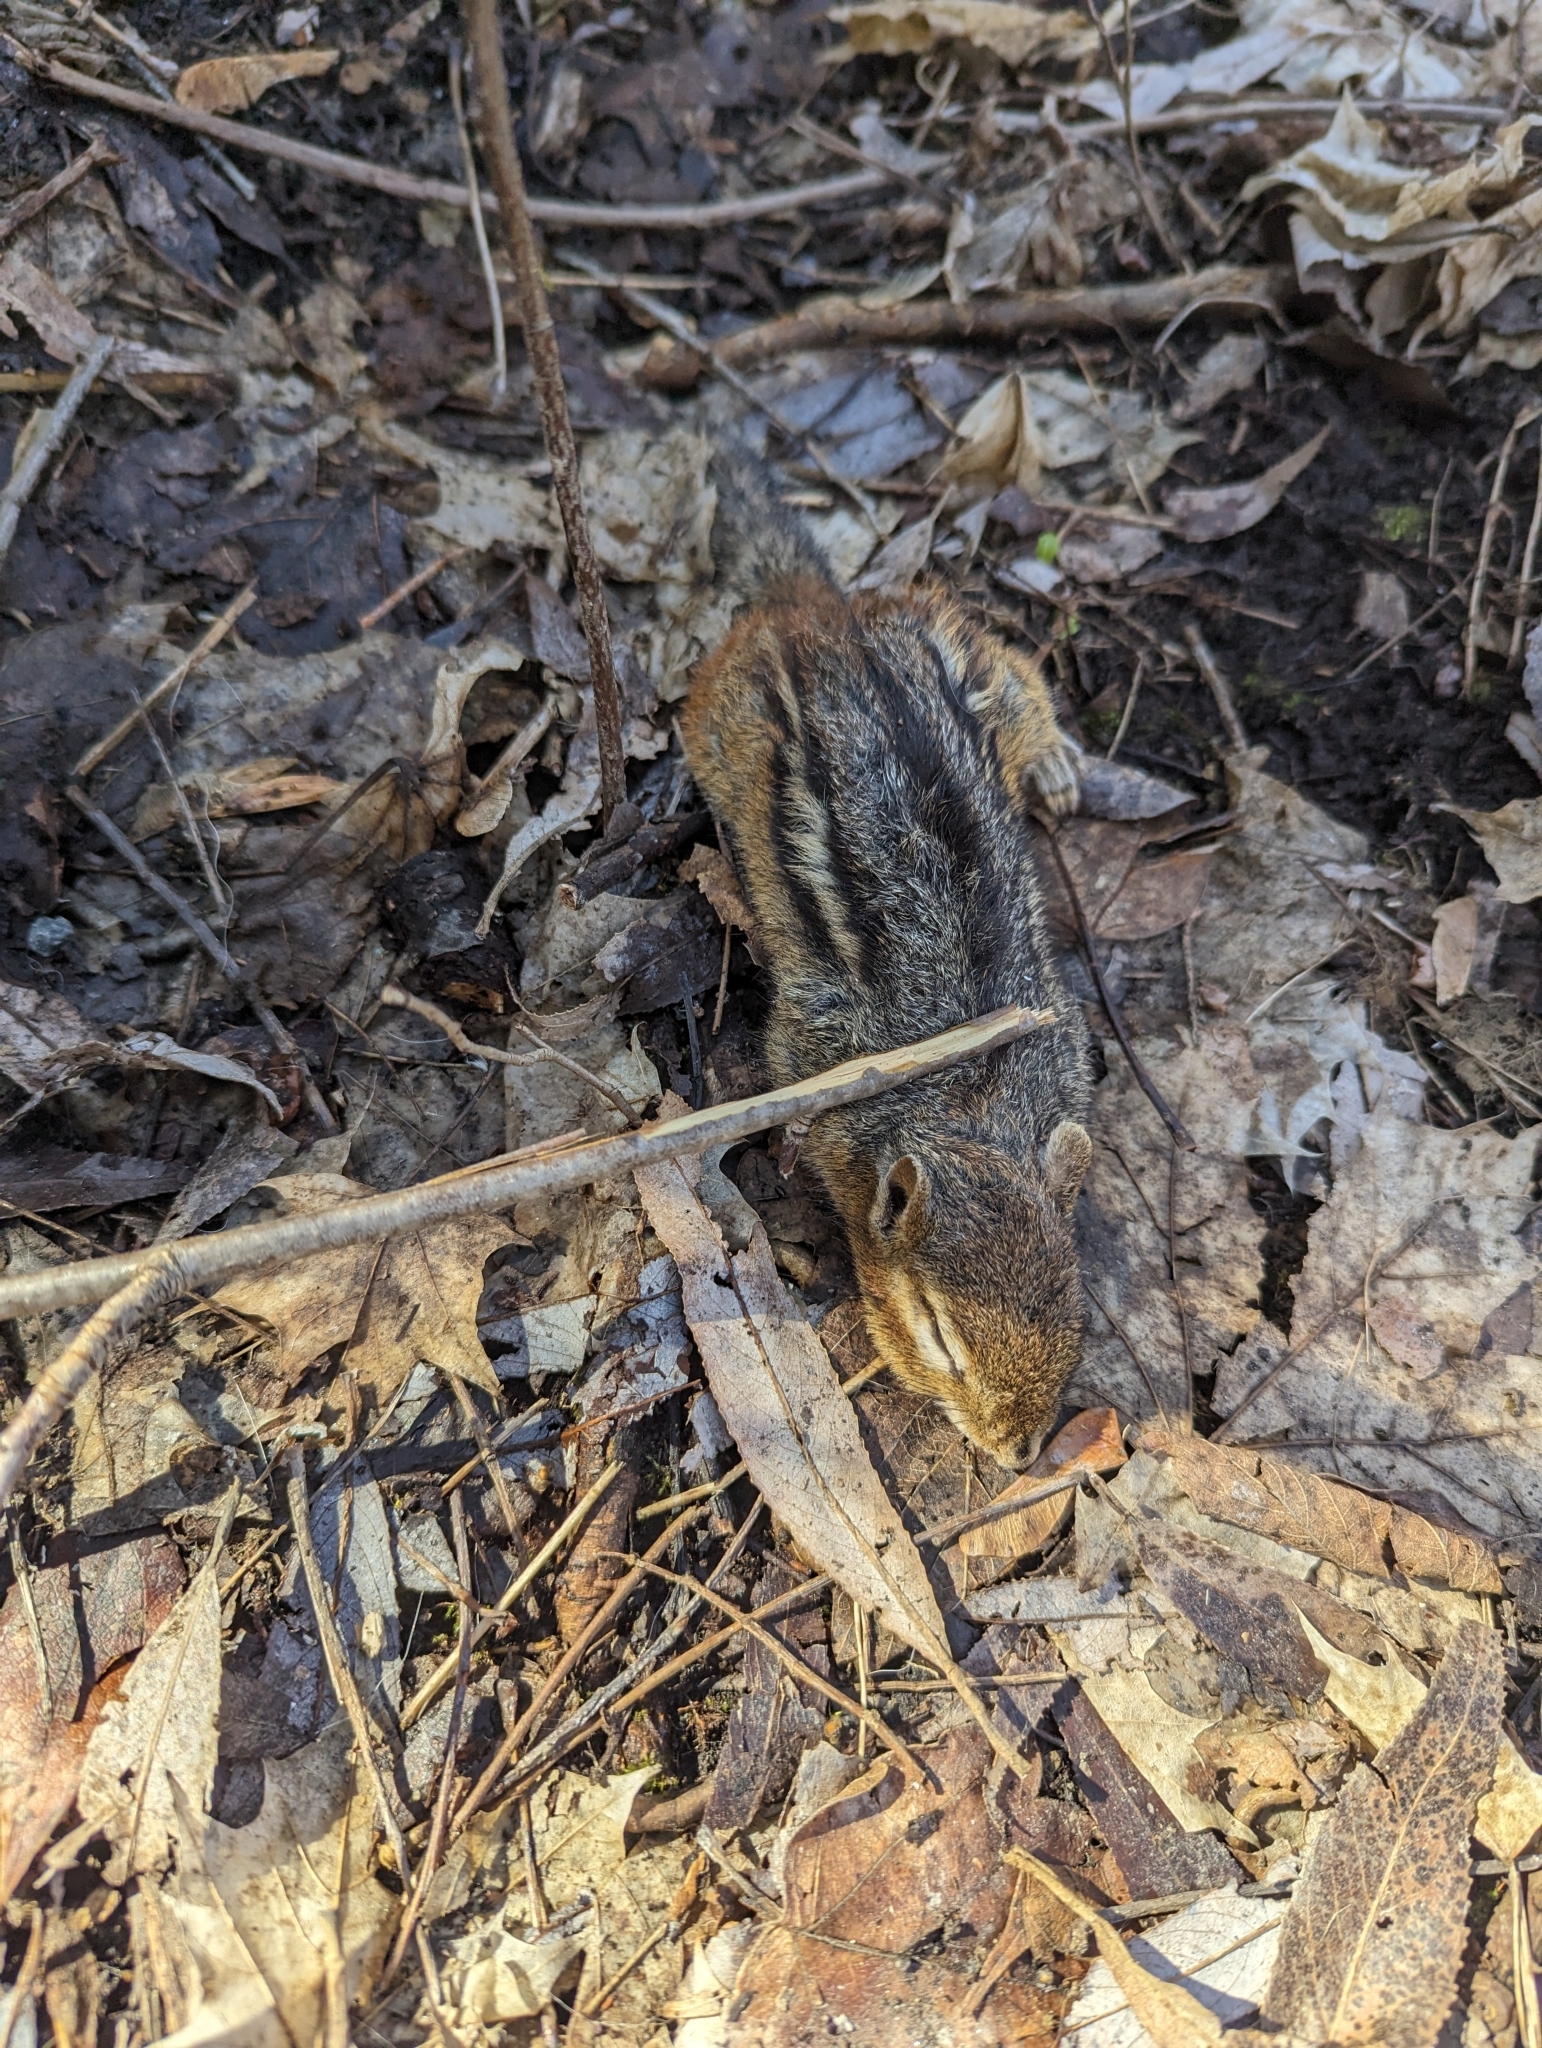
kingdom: Animalia
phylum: Chordata
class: Mammalia
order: Rodentia
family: Sciuridae
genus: Tamias
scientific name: Tamias striatus
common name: Eastern chipmunk
